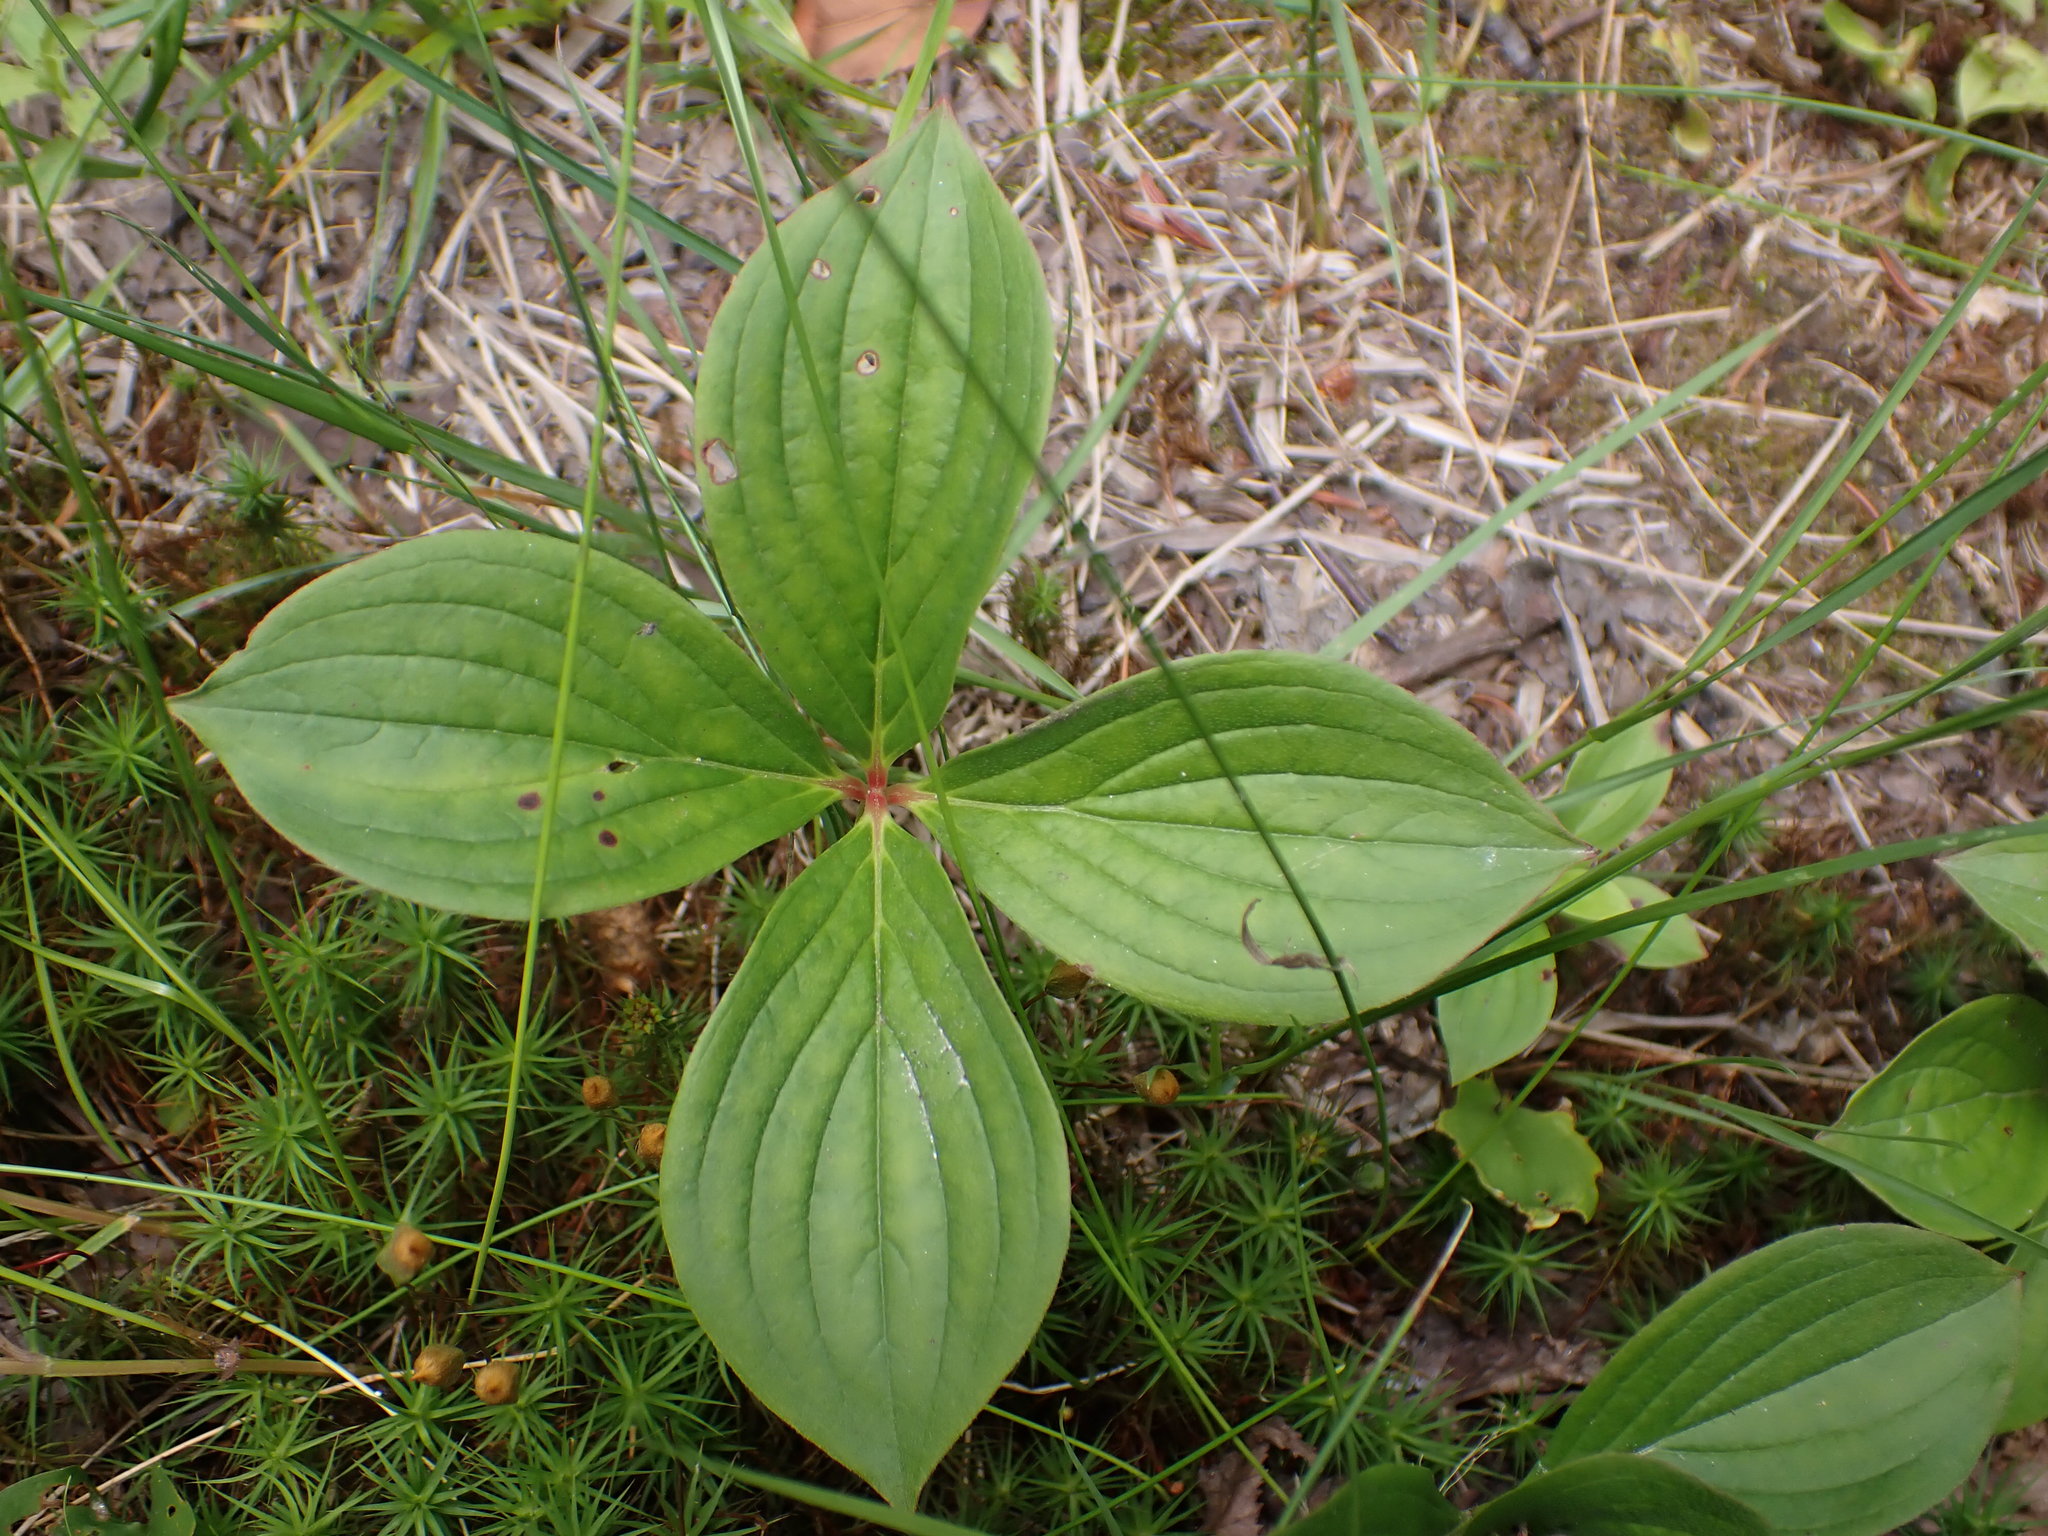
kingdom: Plantae
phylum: Tracheophyta
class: Magnoliopsida
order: Cornales
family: Cornaceae
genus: Cornus
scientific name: Cornus canadensis
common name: Creeping dogwood
